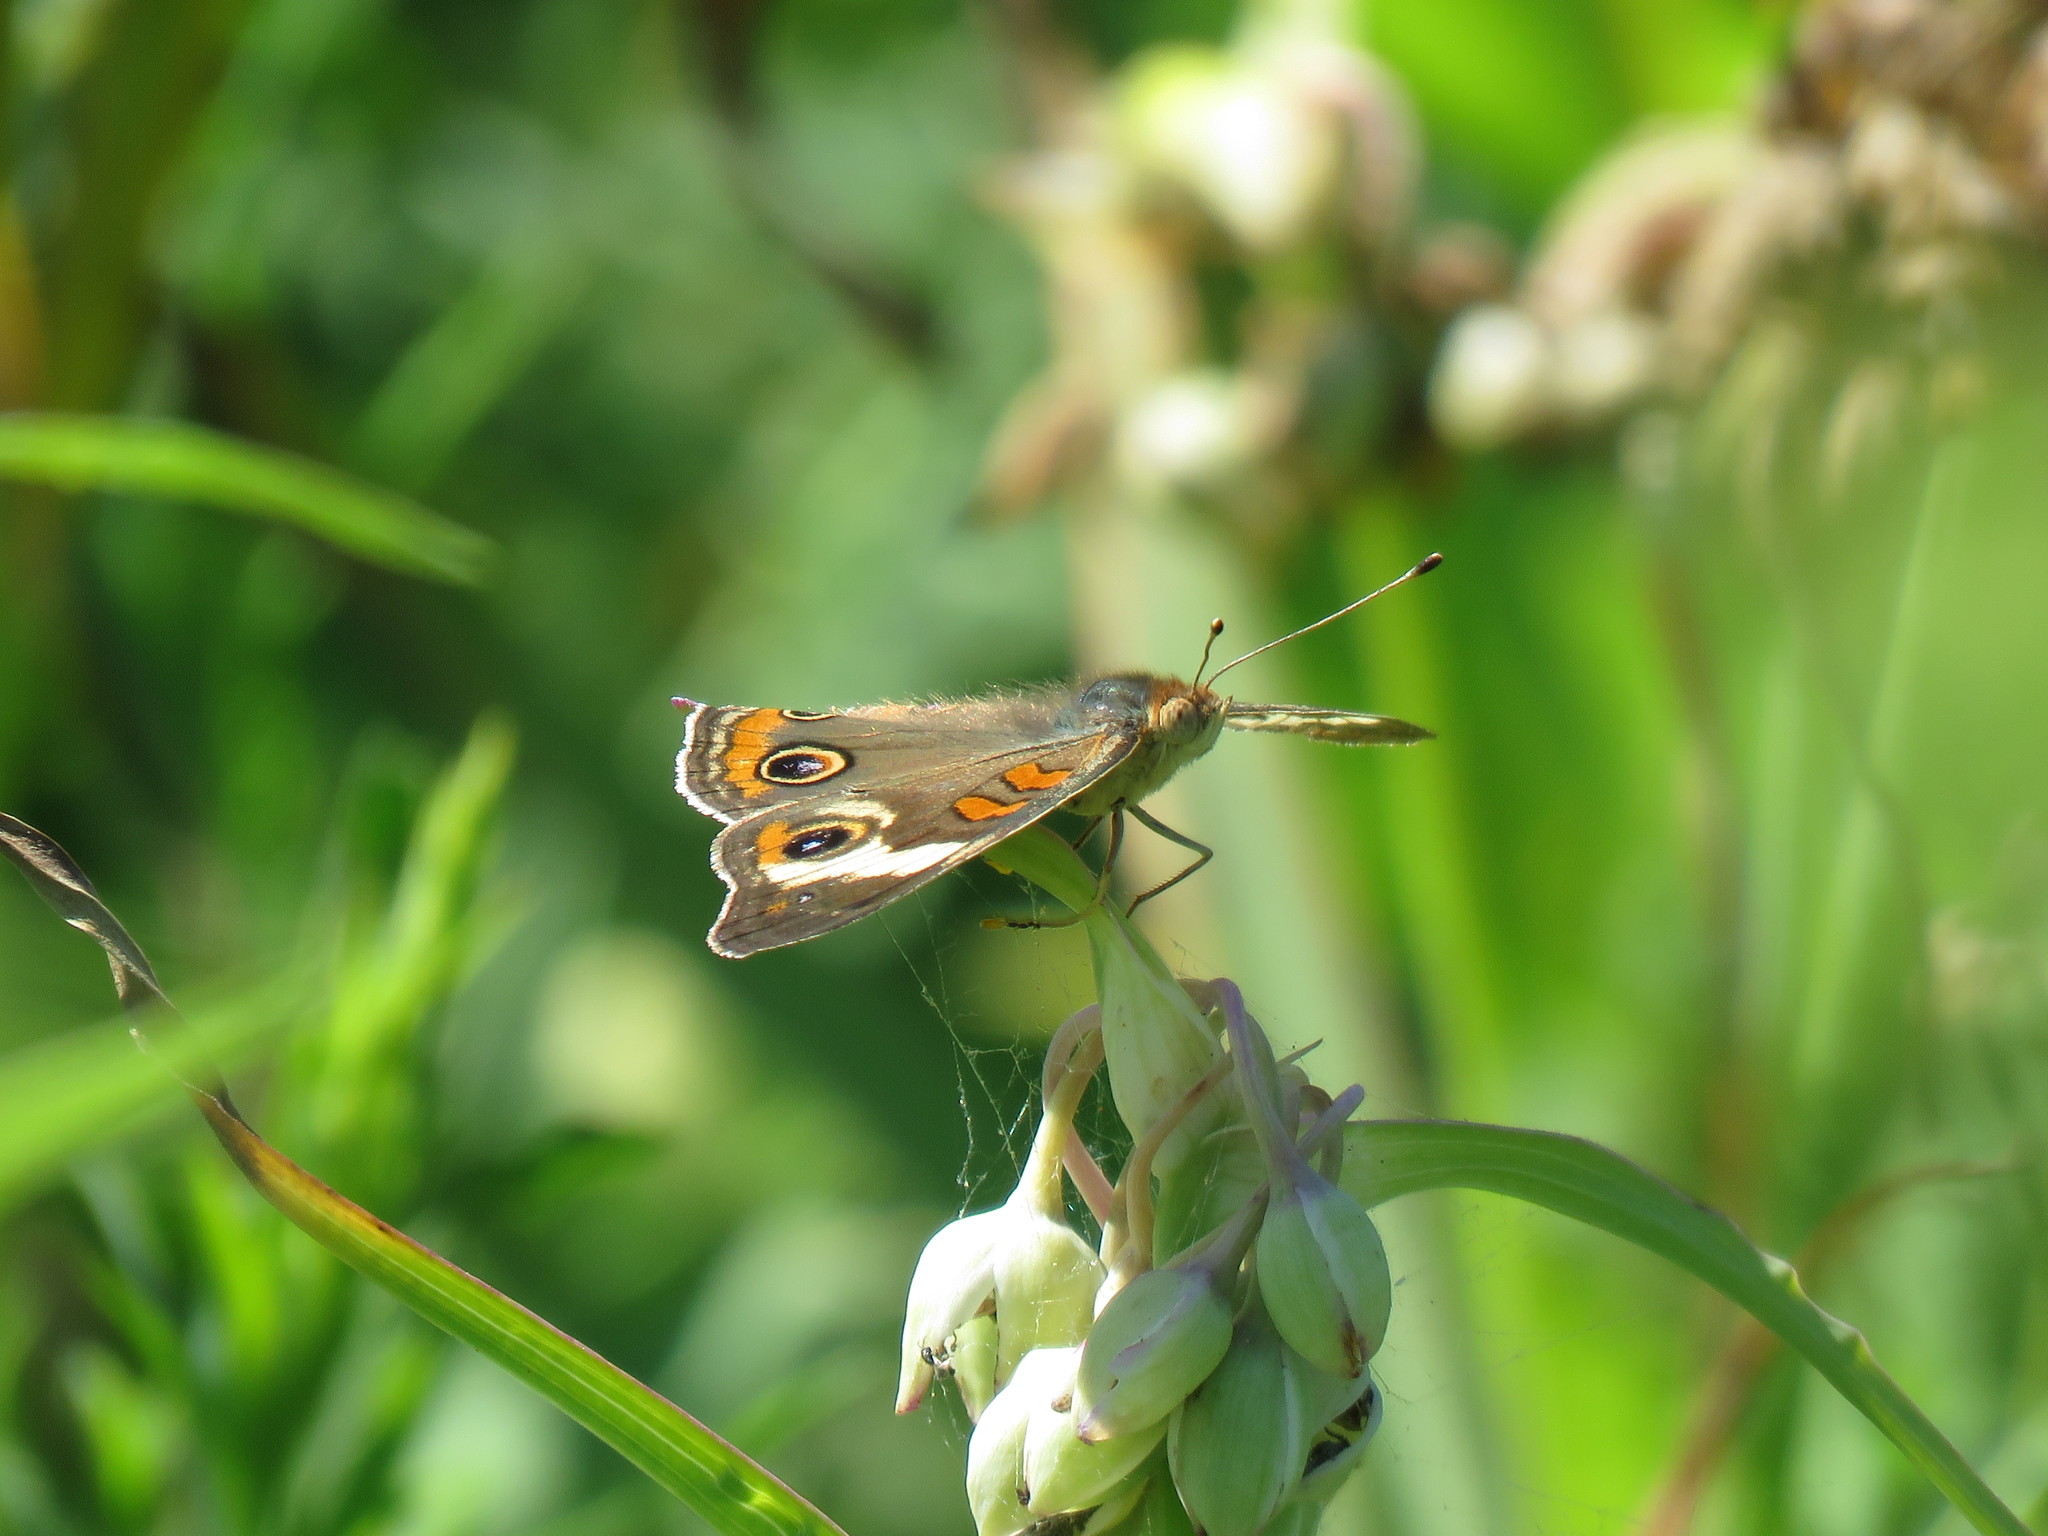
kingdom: Animalia
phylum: Arthropoda
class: Insecta
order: Lepidoptera
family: Nymphalidae
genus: Junonia
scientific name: Junonia coenia
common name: Common buckeye
